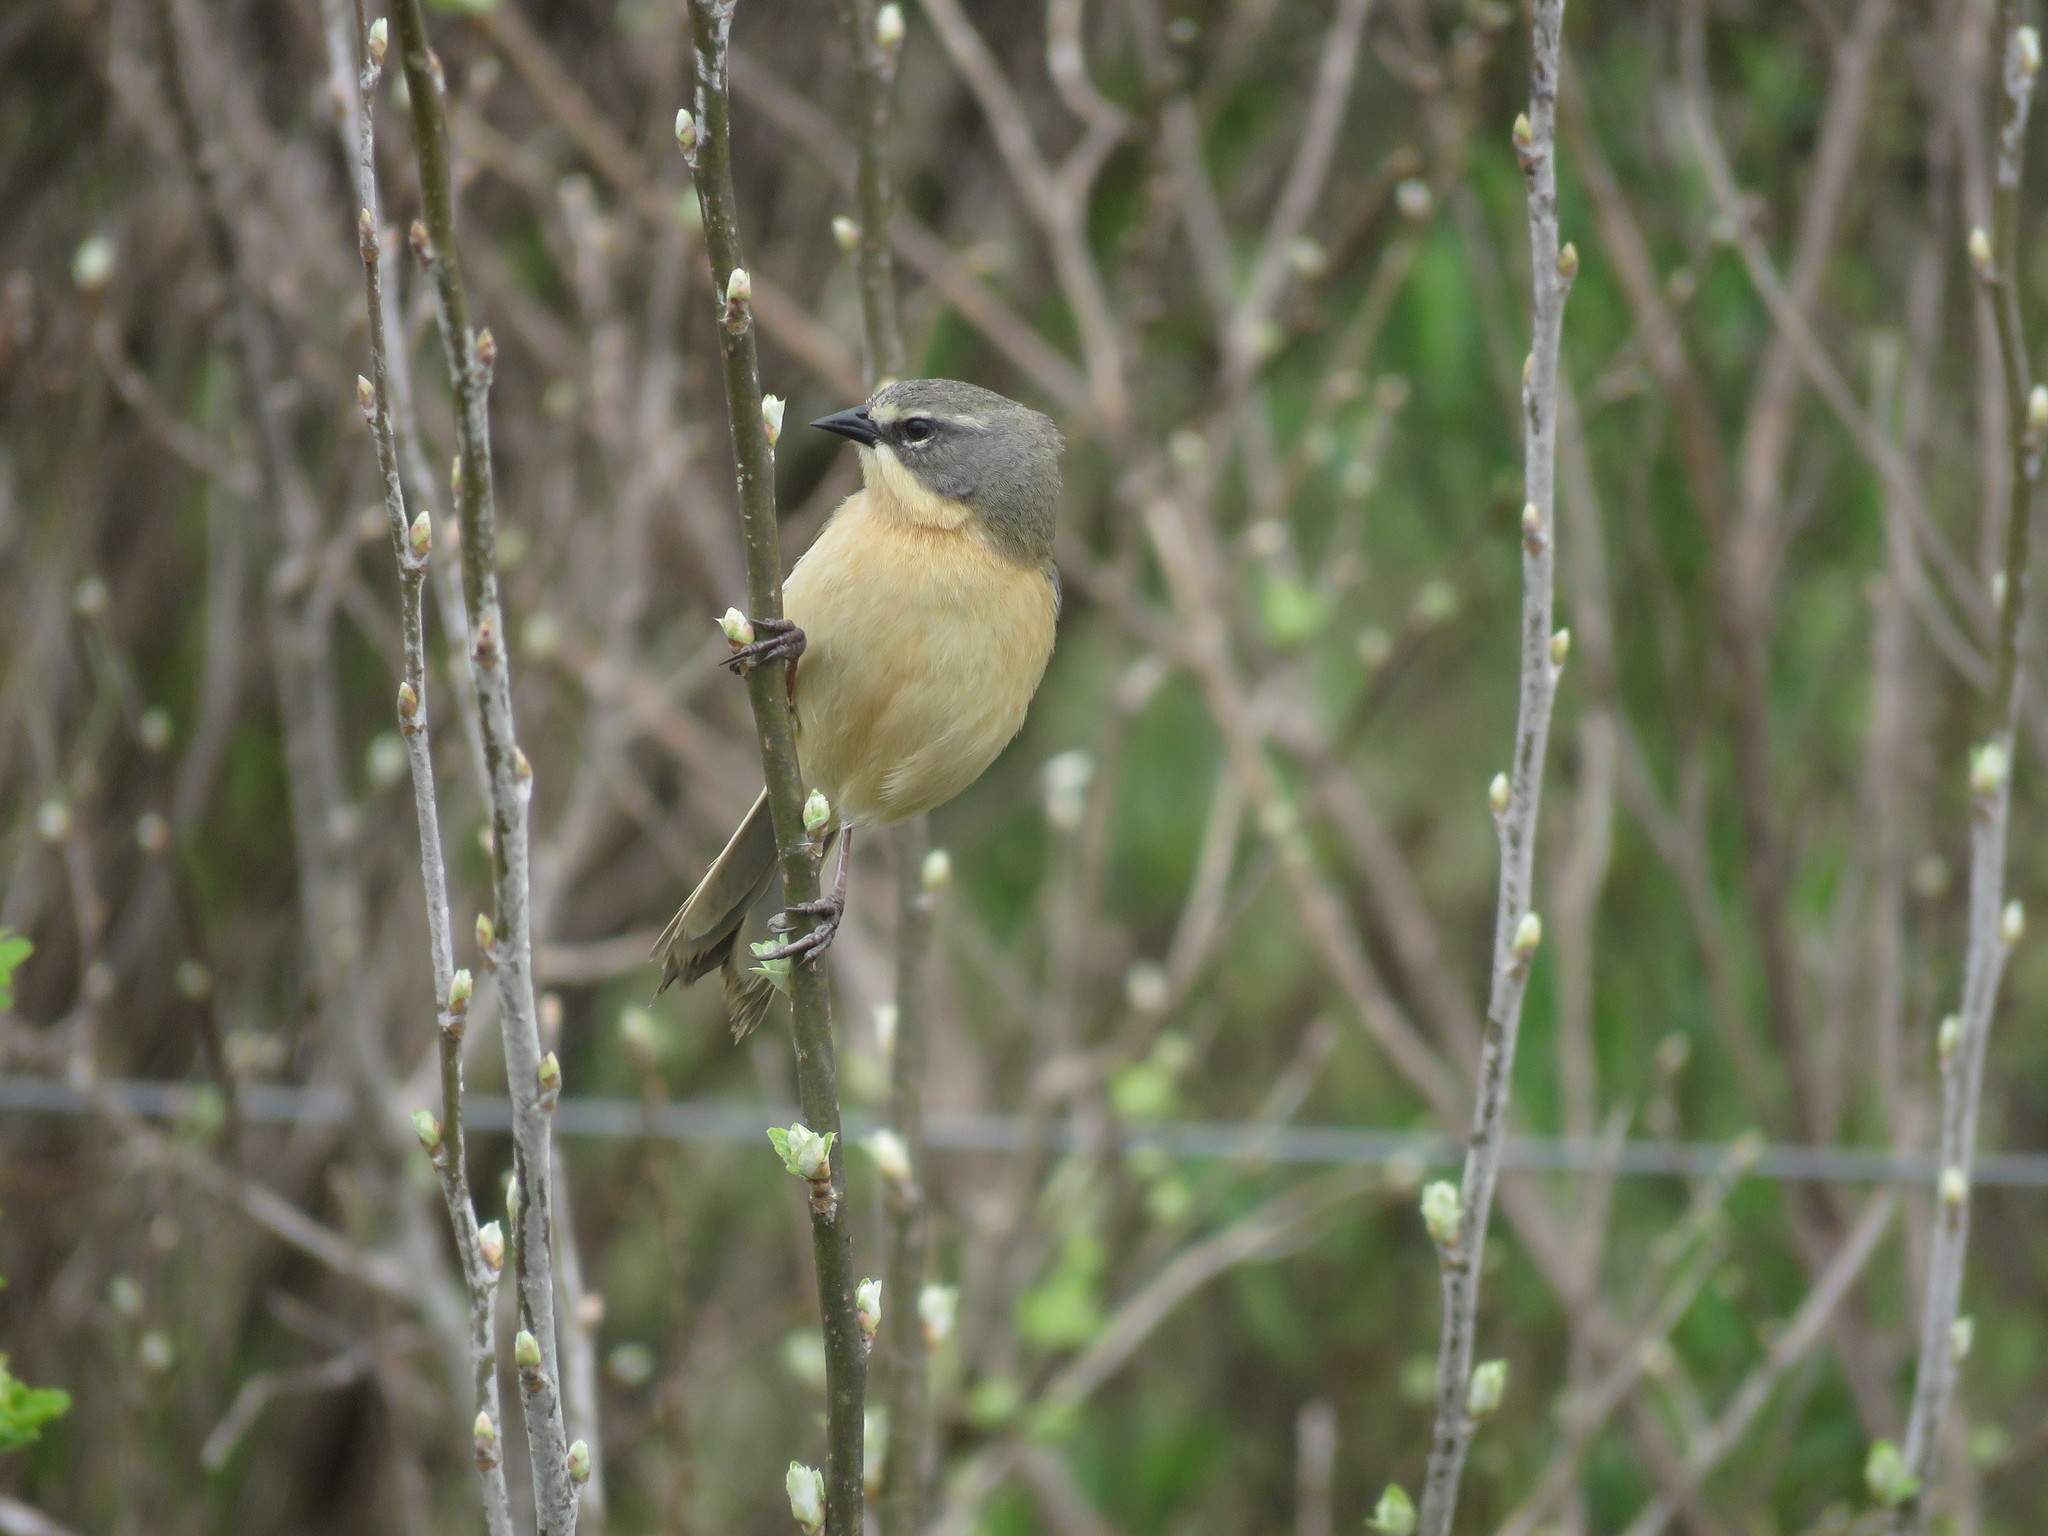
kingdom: Animalia
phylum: Chordata
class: Aves
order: Passeriformes
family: Thraupidae
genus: Donacospiza
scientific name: Donacospiza albifrons
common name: Long-tailed reed finch
